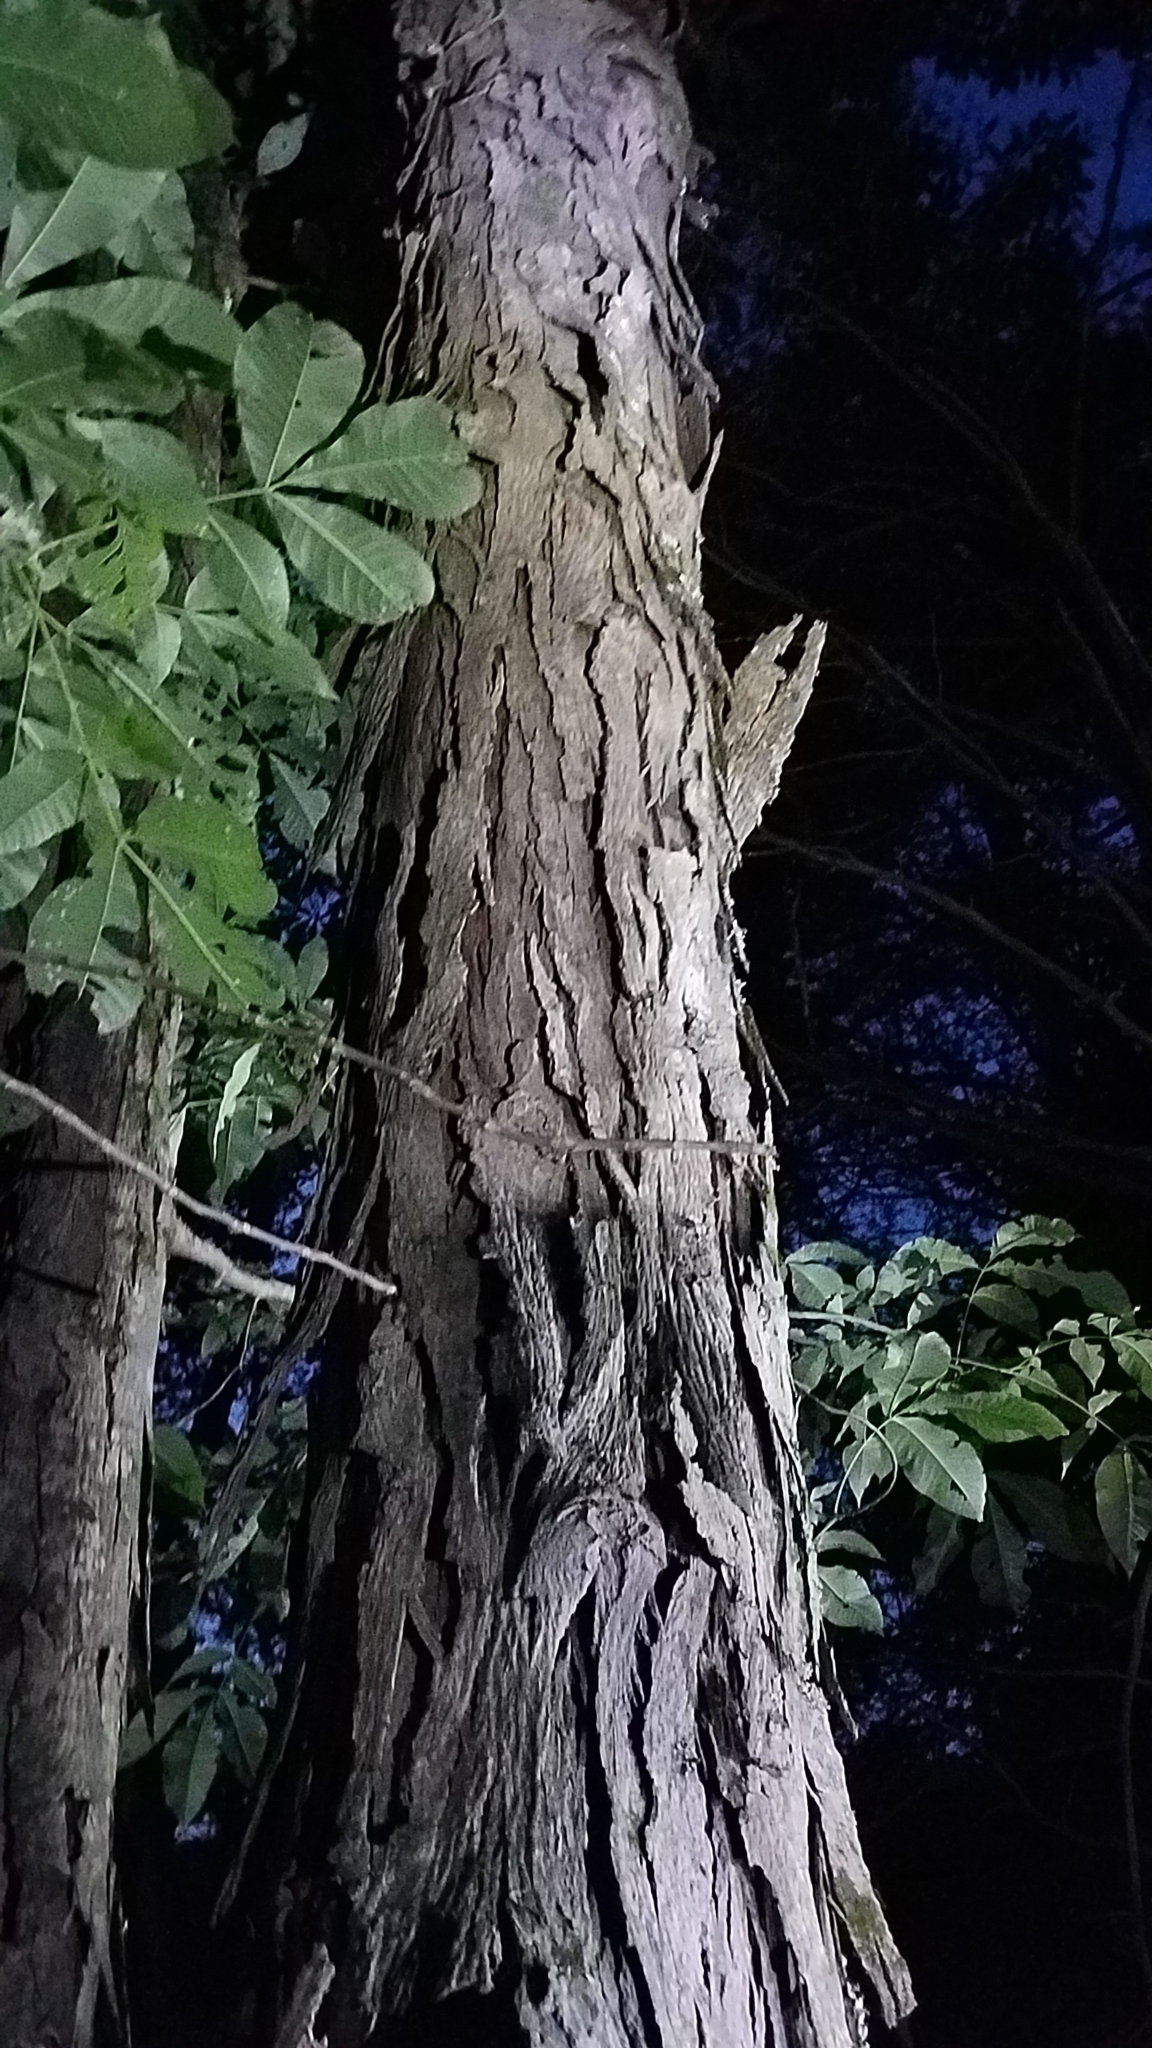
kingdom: Plantae
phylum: Tracheophyta
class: Magnoliopsida
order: Fagales
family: Juglandaceae
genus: Carya
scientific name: Carya ovata
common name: Shagbark hickory
